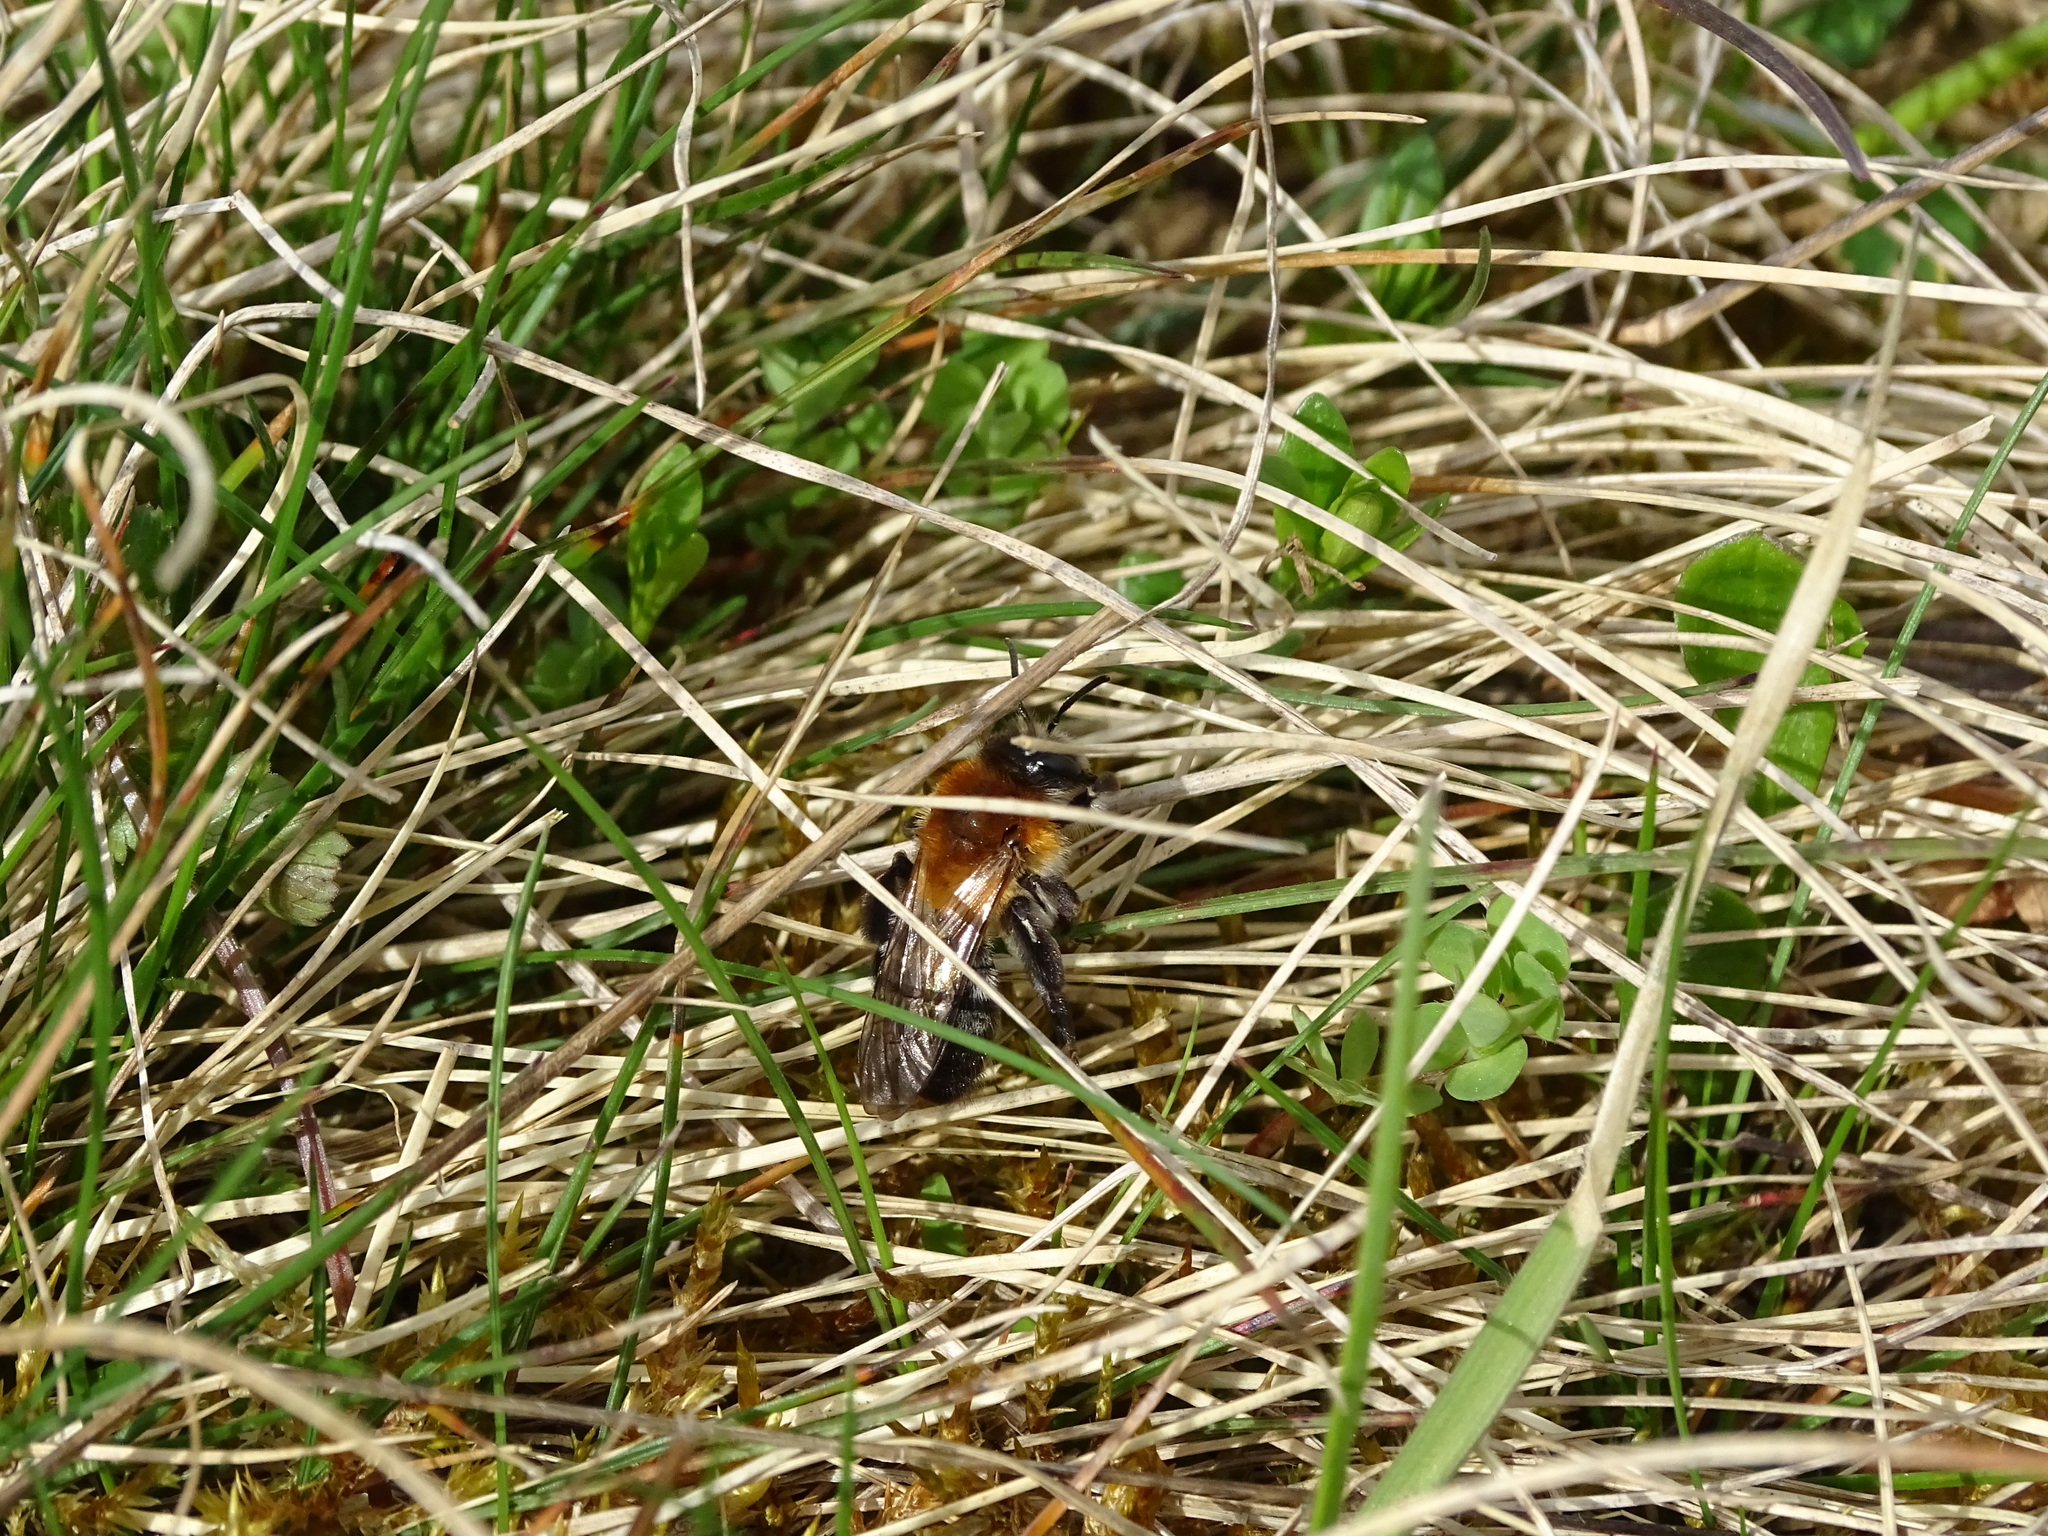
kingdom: Animalia
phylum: Arthropoda
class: Insecta
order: Hymenoptera
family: Andrenidae
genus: Andrena
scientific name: Andrena nitida
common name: Grey-patched mining bee
